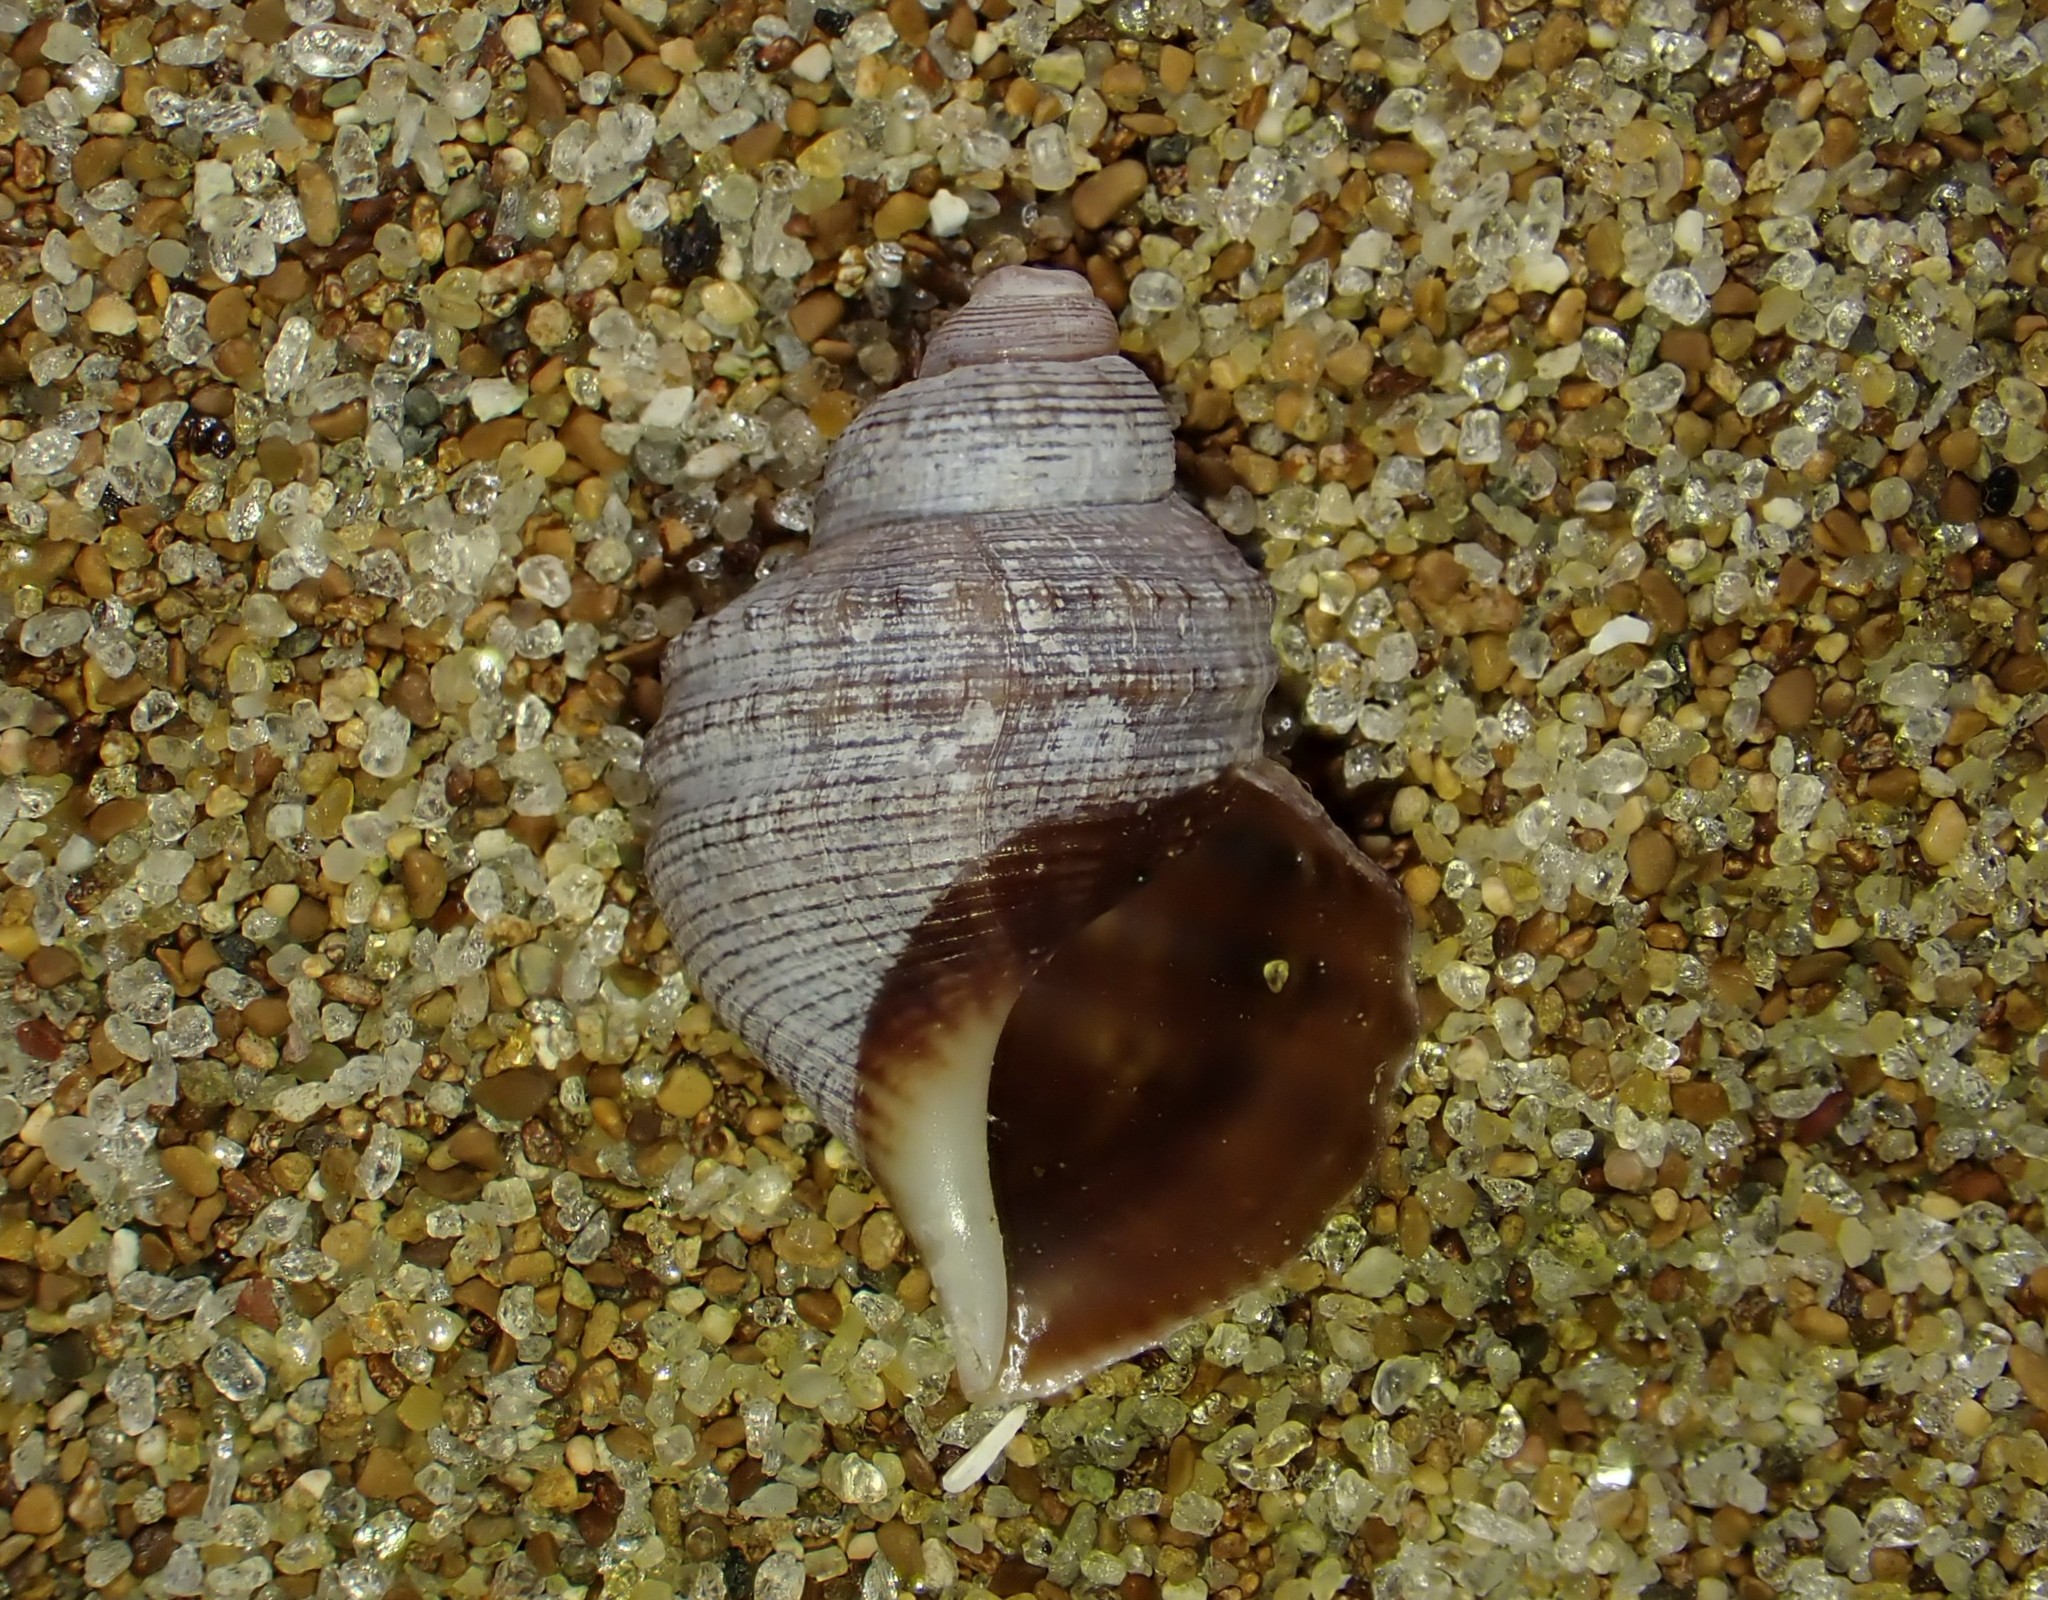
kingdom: Animalia
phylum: Mollusca
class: Gastropoda
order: Littorinimorpha
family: Struthiolariidae
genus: Pelicaria
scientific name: Pelicaria vermis
